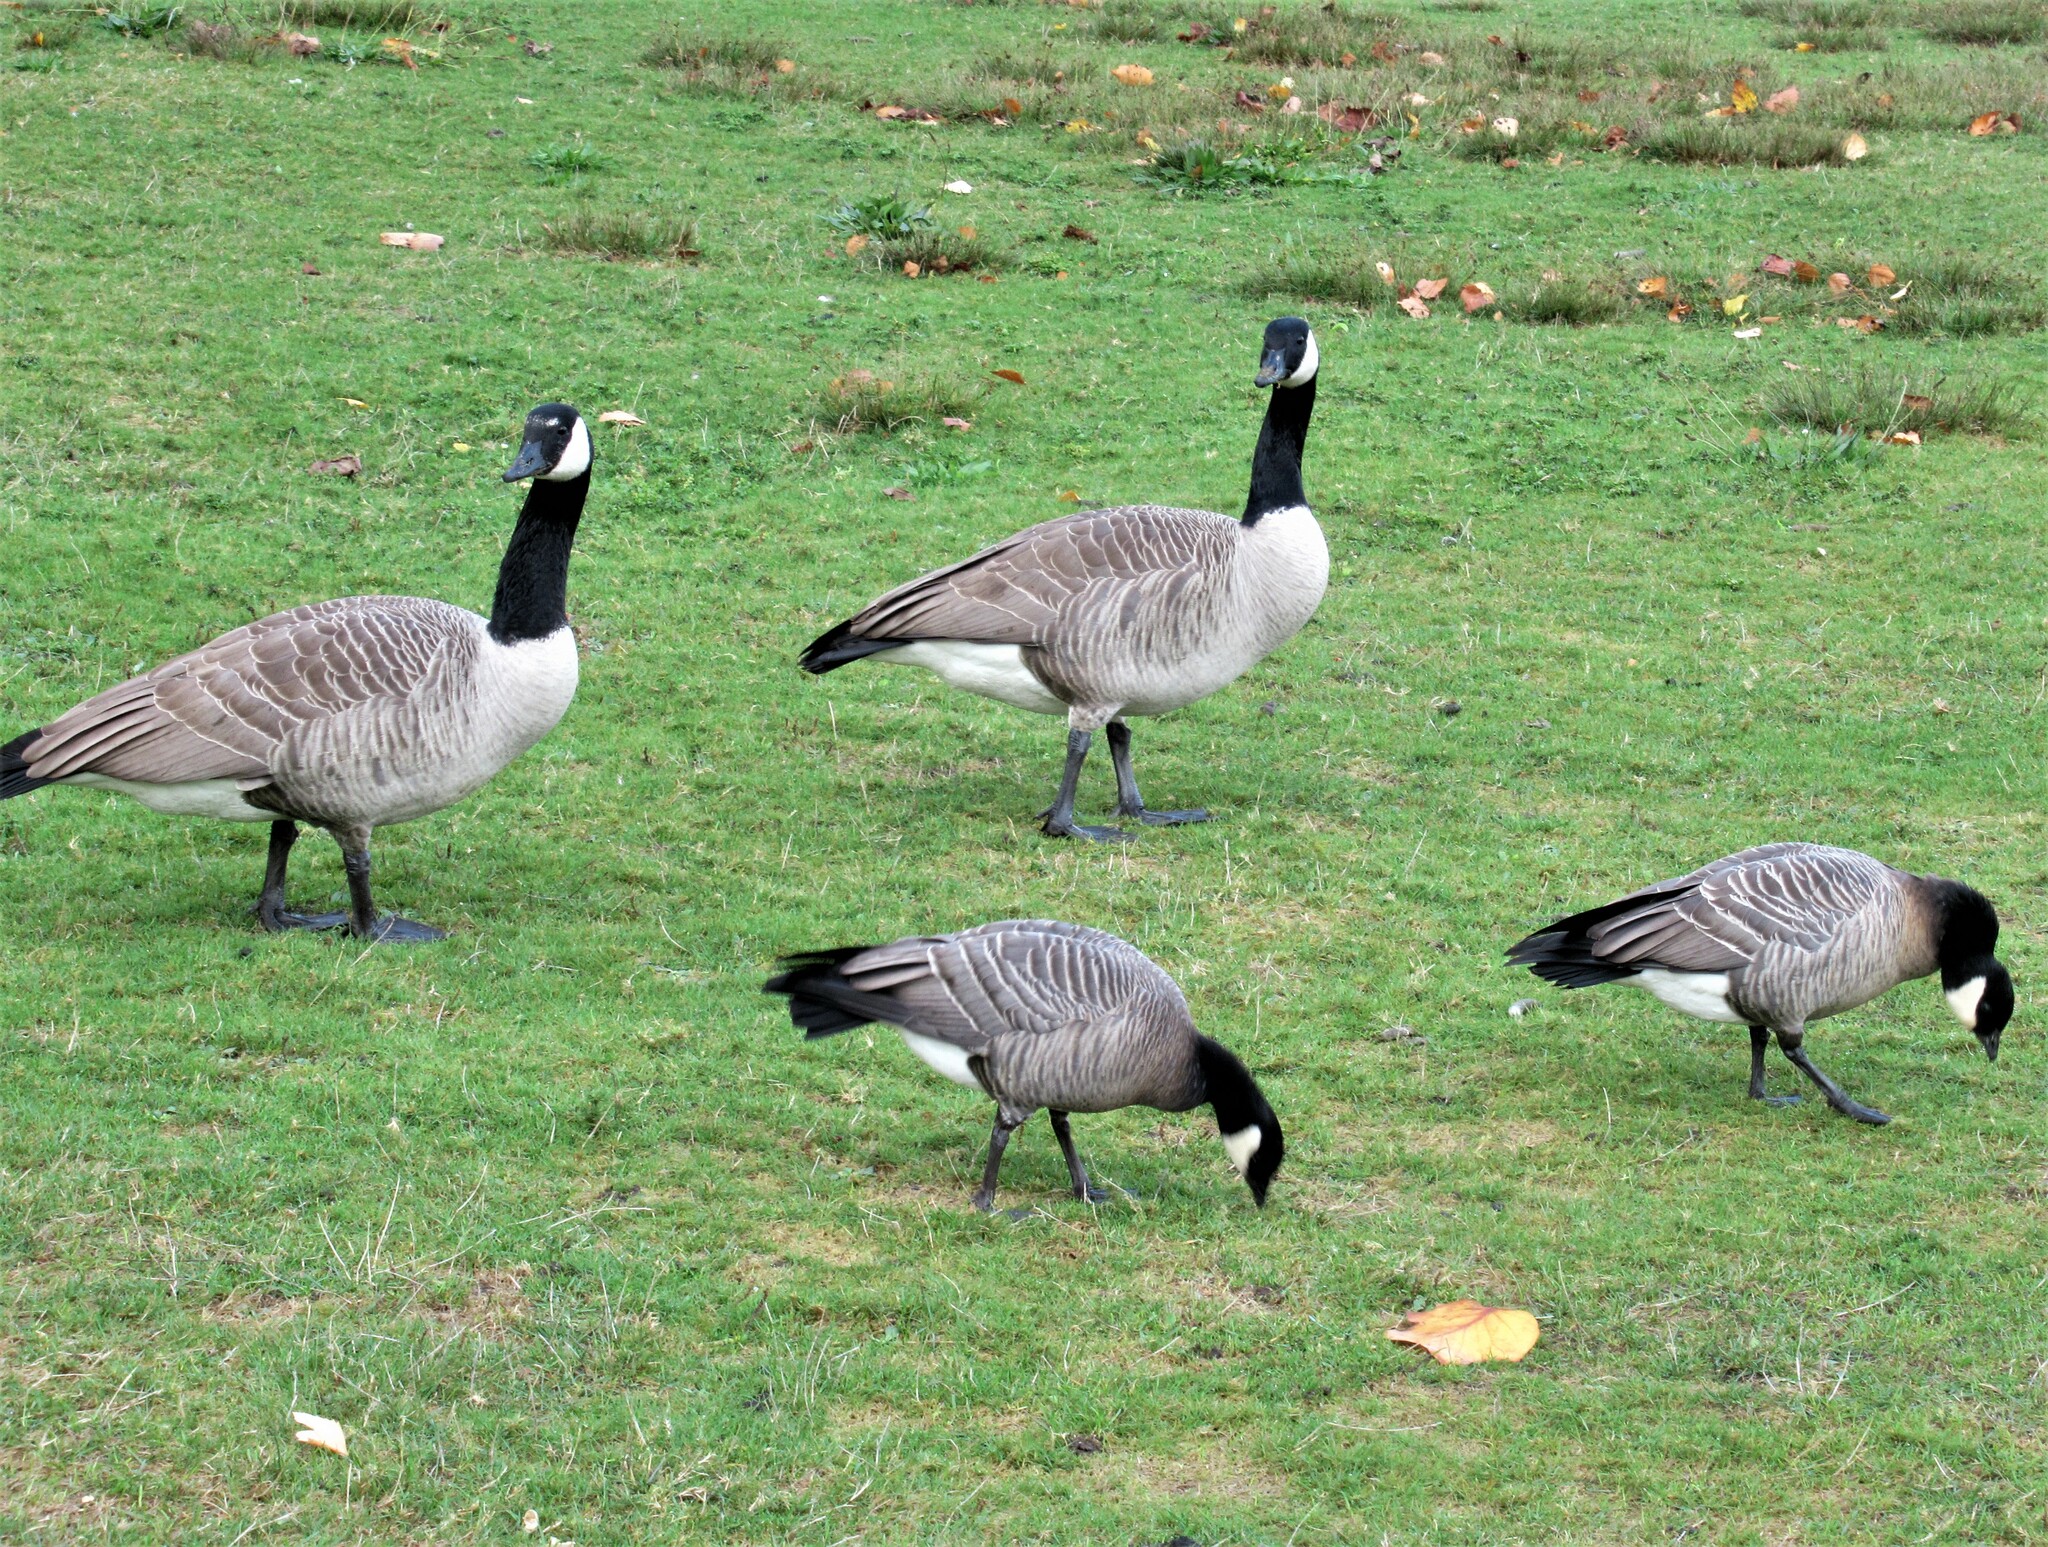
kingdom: Animalia
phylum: Chordata
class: Aves
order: Anseriformes
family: Anatidae
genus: Branta
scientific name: Branta hutchinsii
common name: Cackling goose
